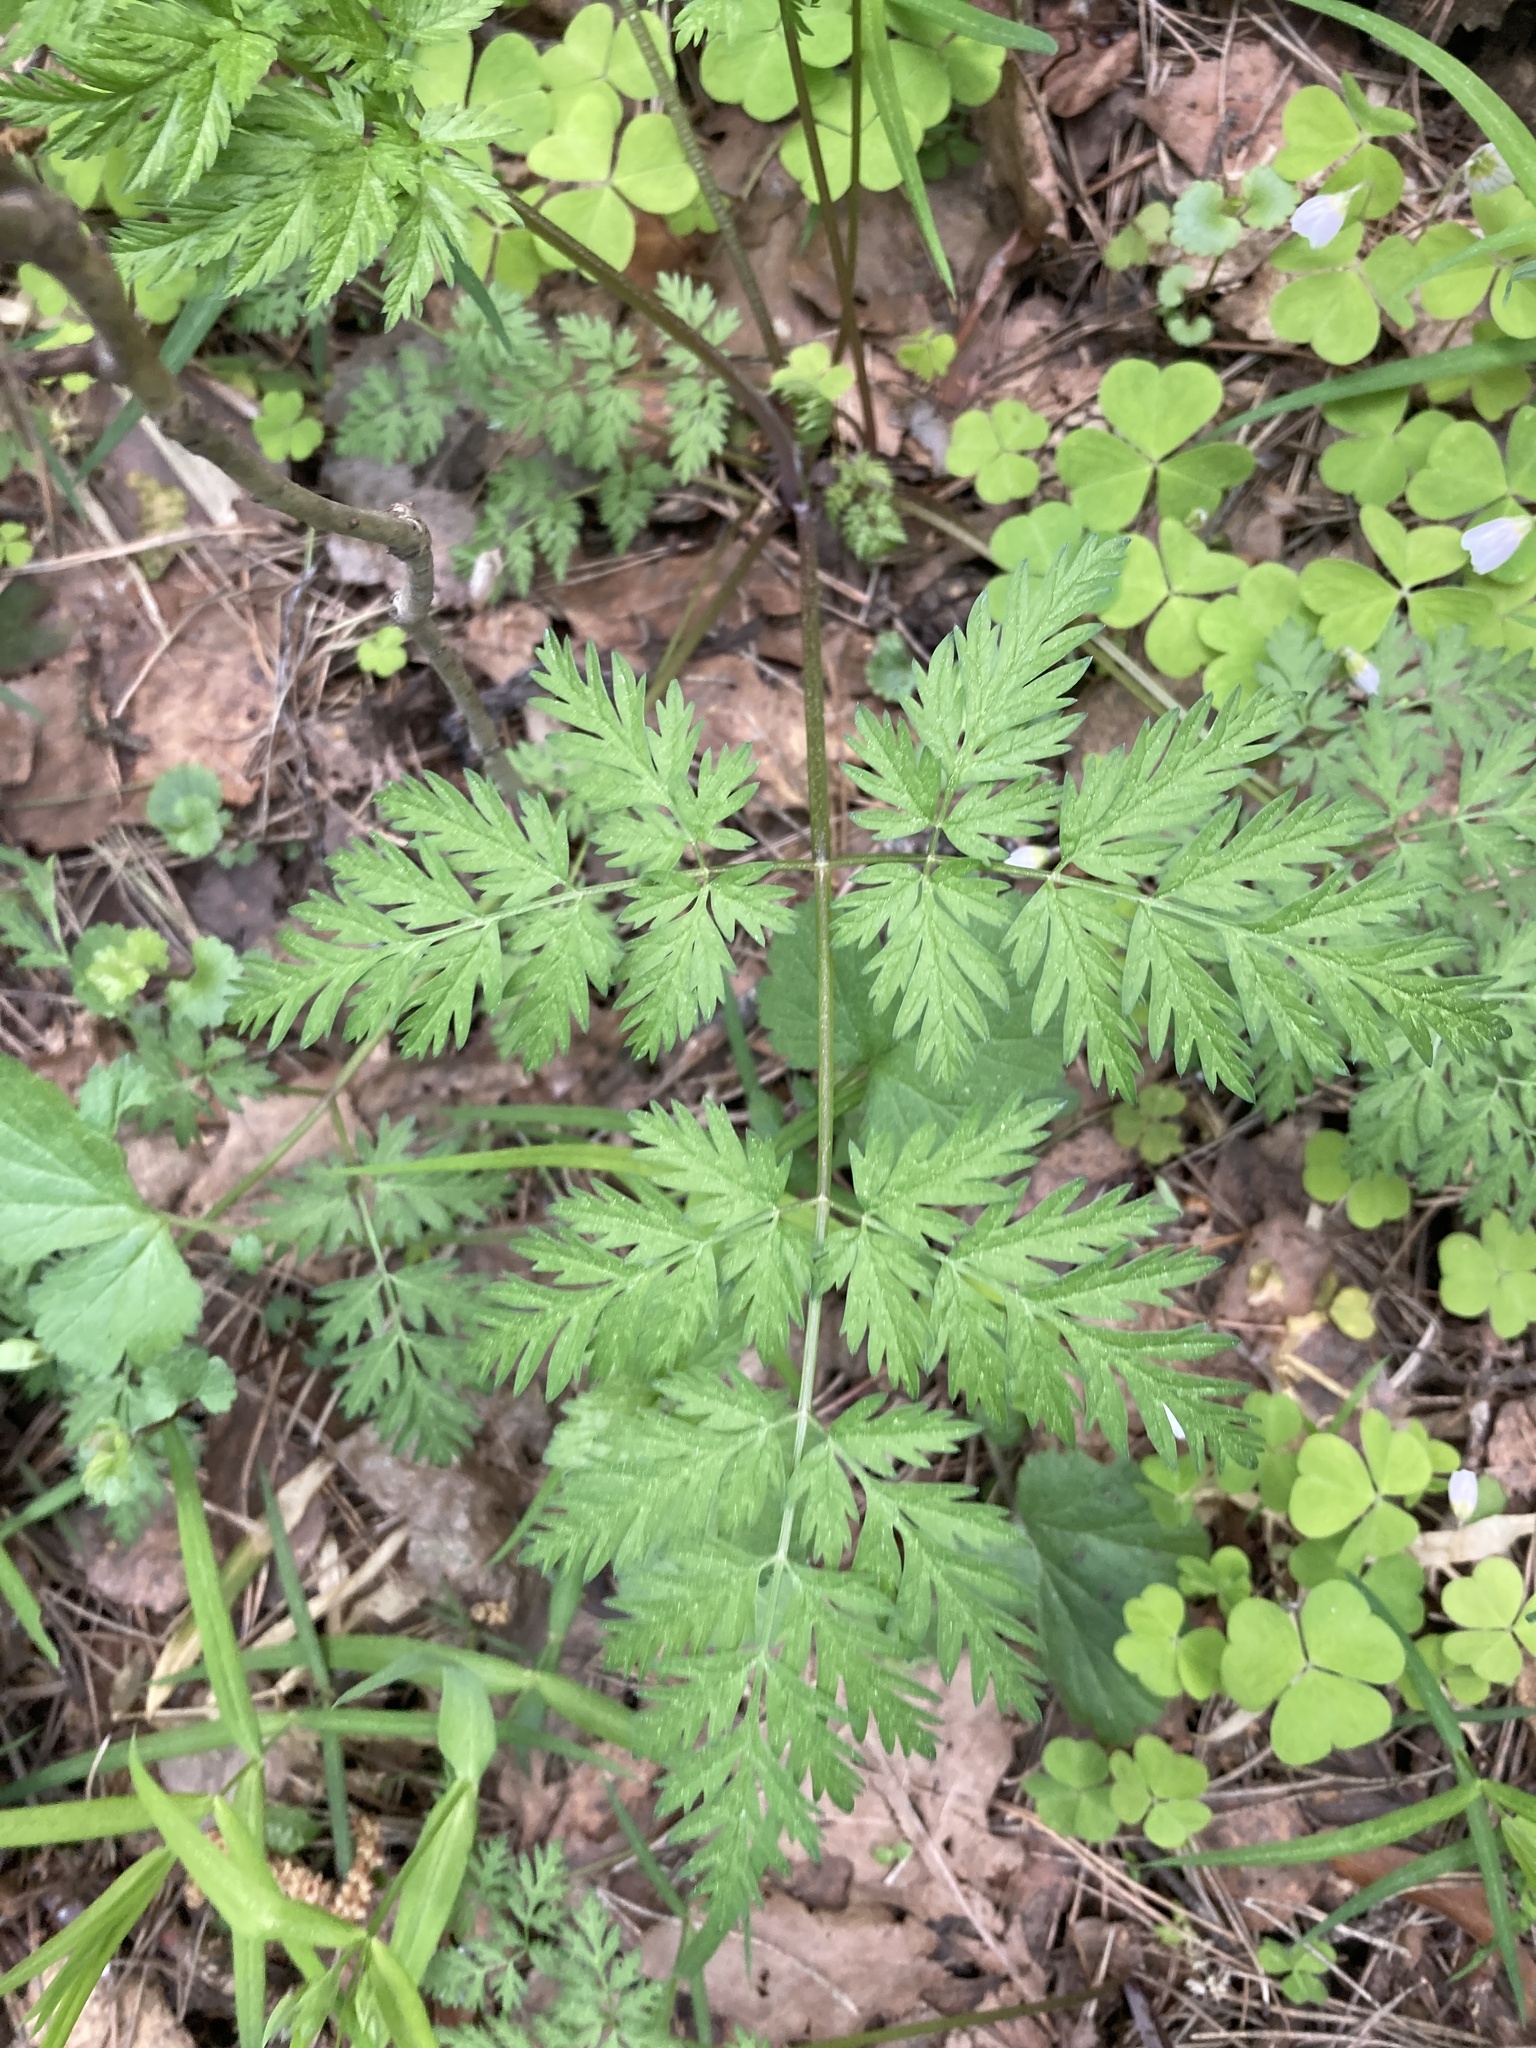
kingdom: Plantae
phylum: Tracheophyta
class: Magnoliopsida
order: Apiales
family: Apiaceae
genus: Anthriscus
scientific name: Anthriscus sylvestris
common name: Cow parsley
